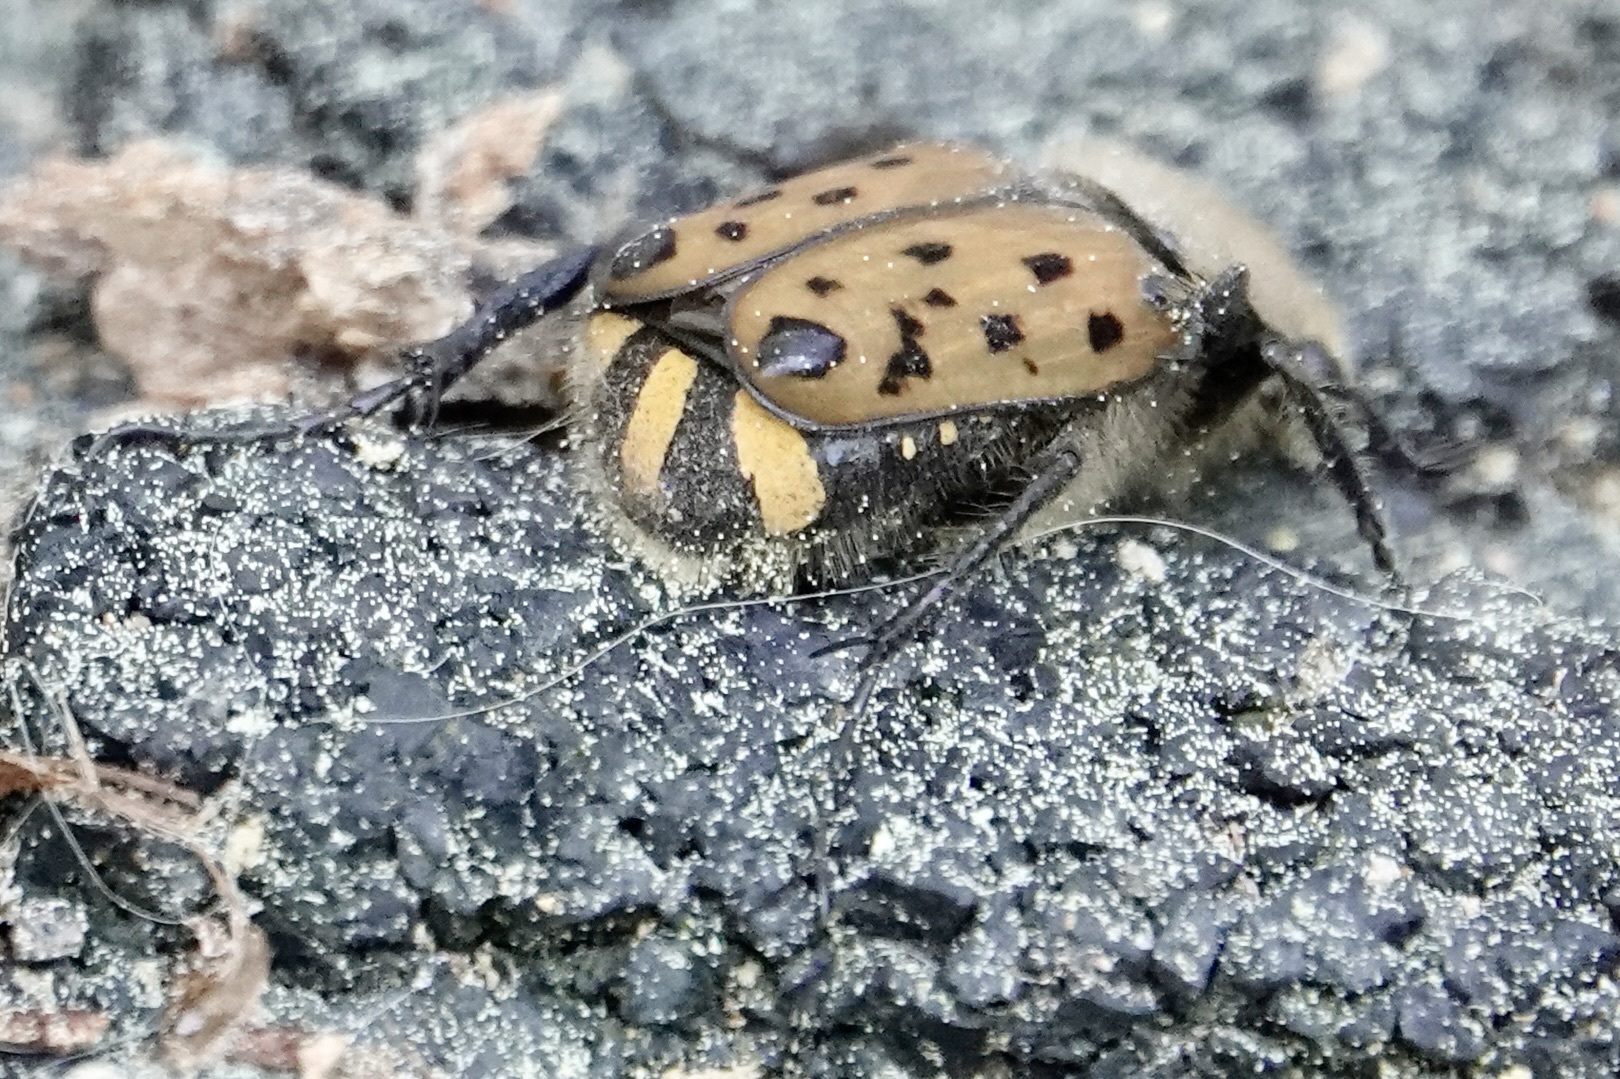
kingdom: Animalia
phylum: Arthropoda
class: Insecta
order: Coleoptera
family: Scarabaeidae
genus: Gnorimella
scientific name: Gnorimella maculosa
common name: Maculate flower beetle
